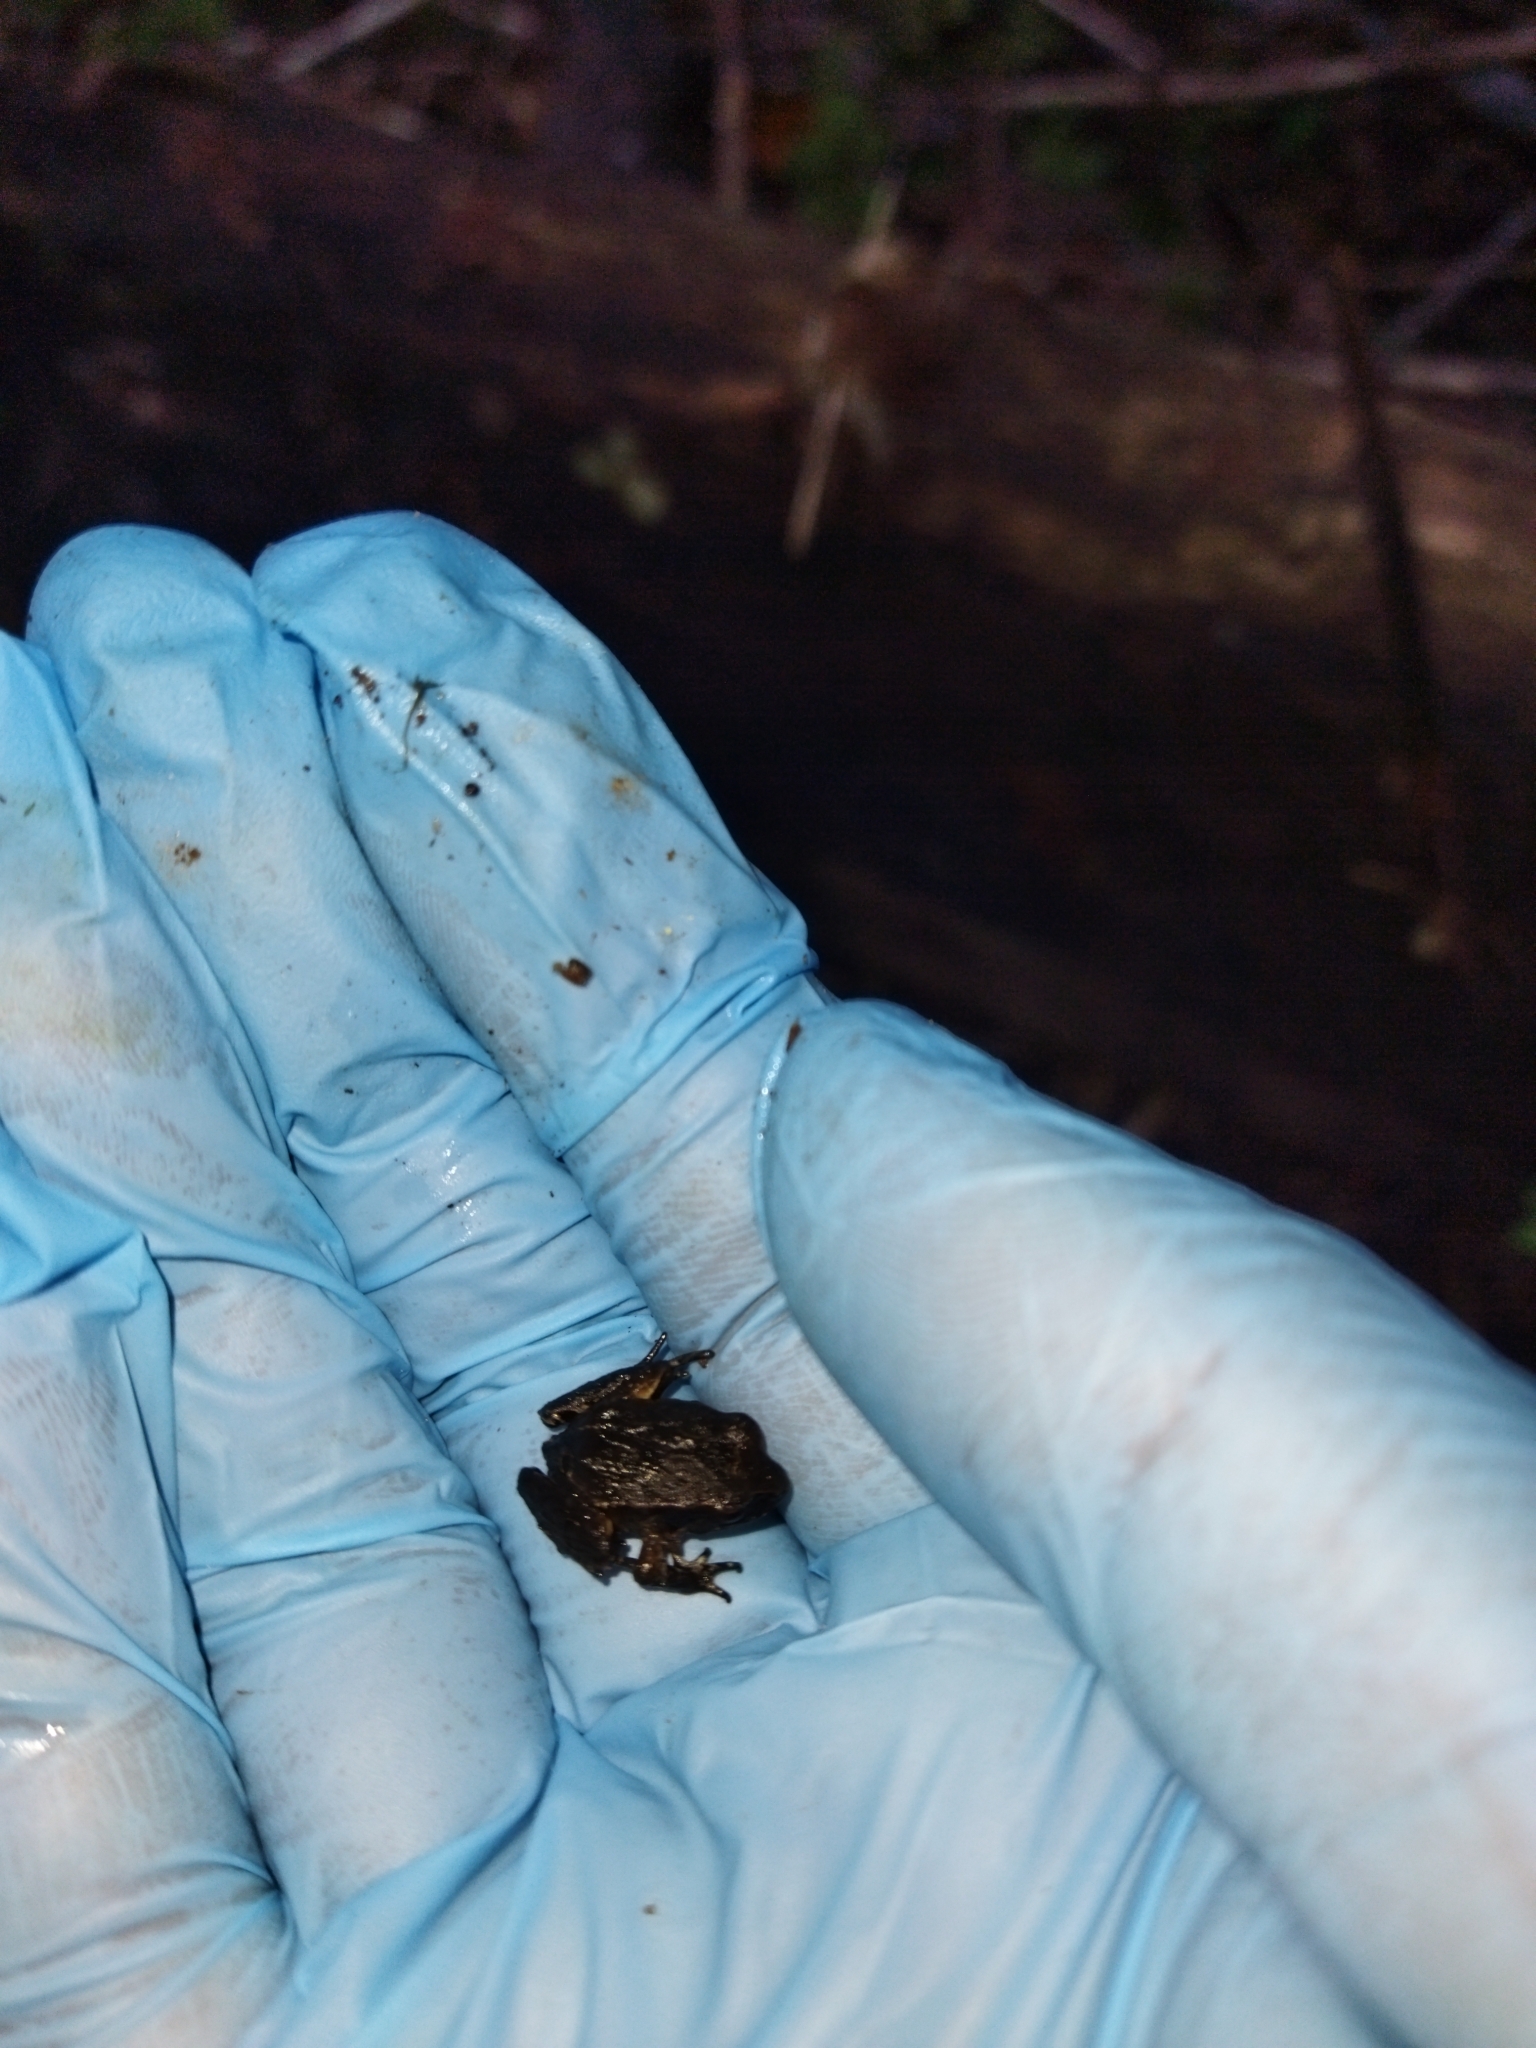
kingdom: Animalia
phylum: Chordata
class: Amphibia
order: Anura
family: Alsodidae
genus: Eupsophus
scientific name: Eupsophus roseus
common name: Rosy ground frog
